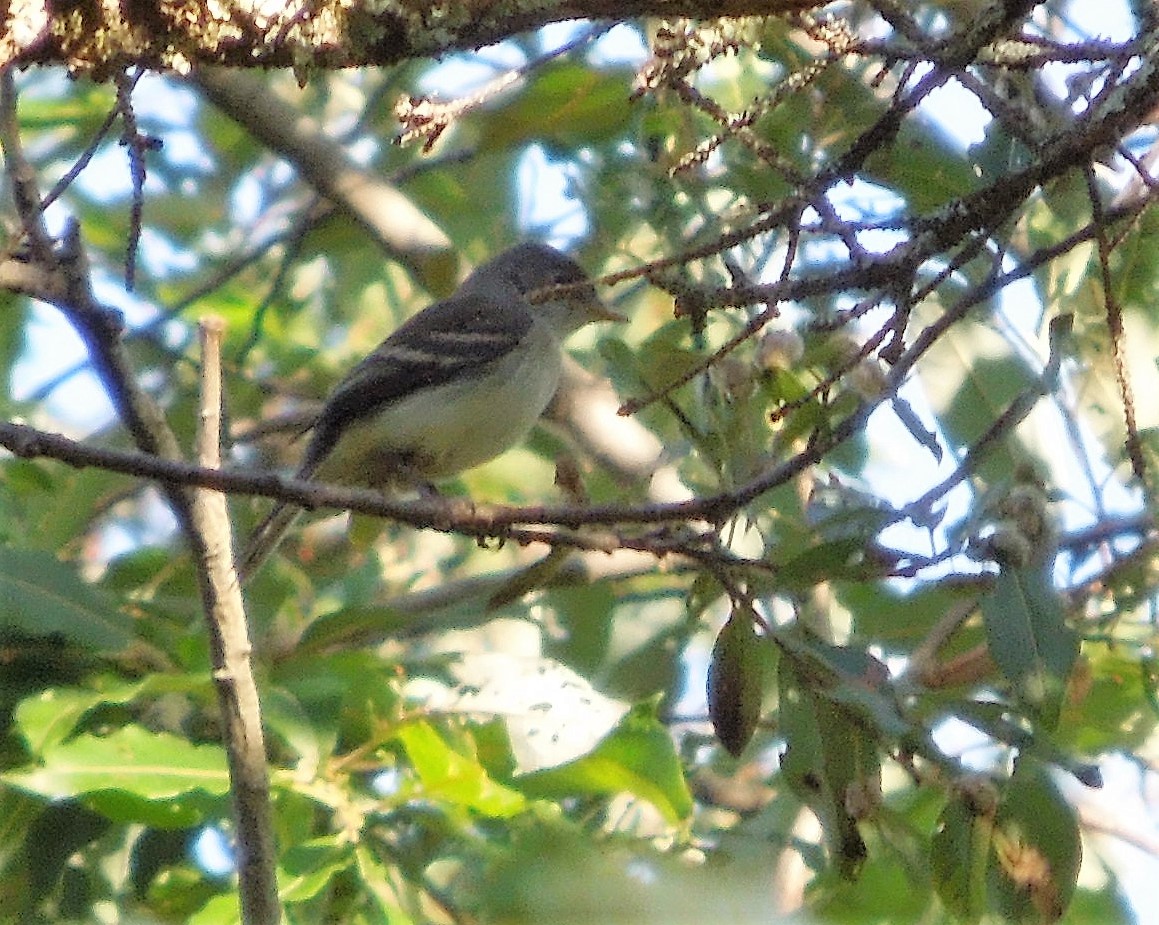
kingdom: Animalia
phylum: Chordata
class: Aves
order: Passeriformes
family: Tyrannidae
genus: Empidonax
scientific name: Empidonax
